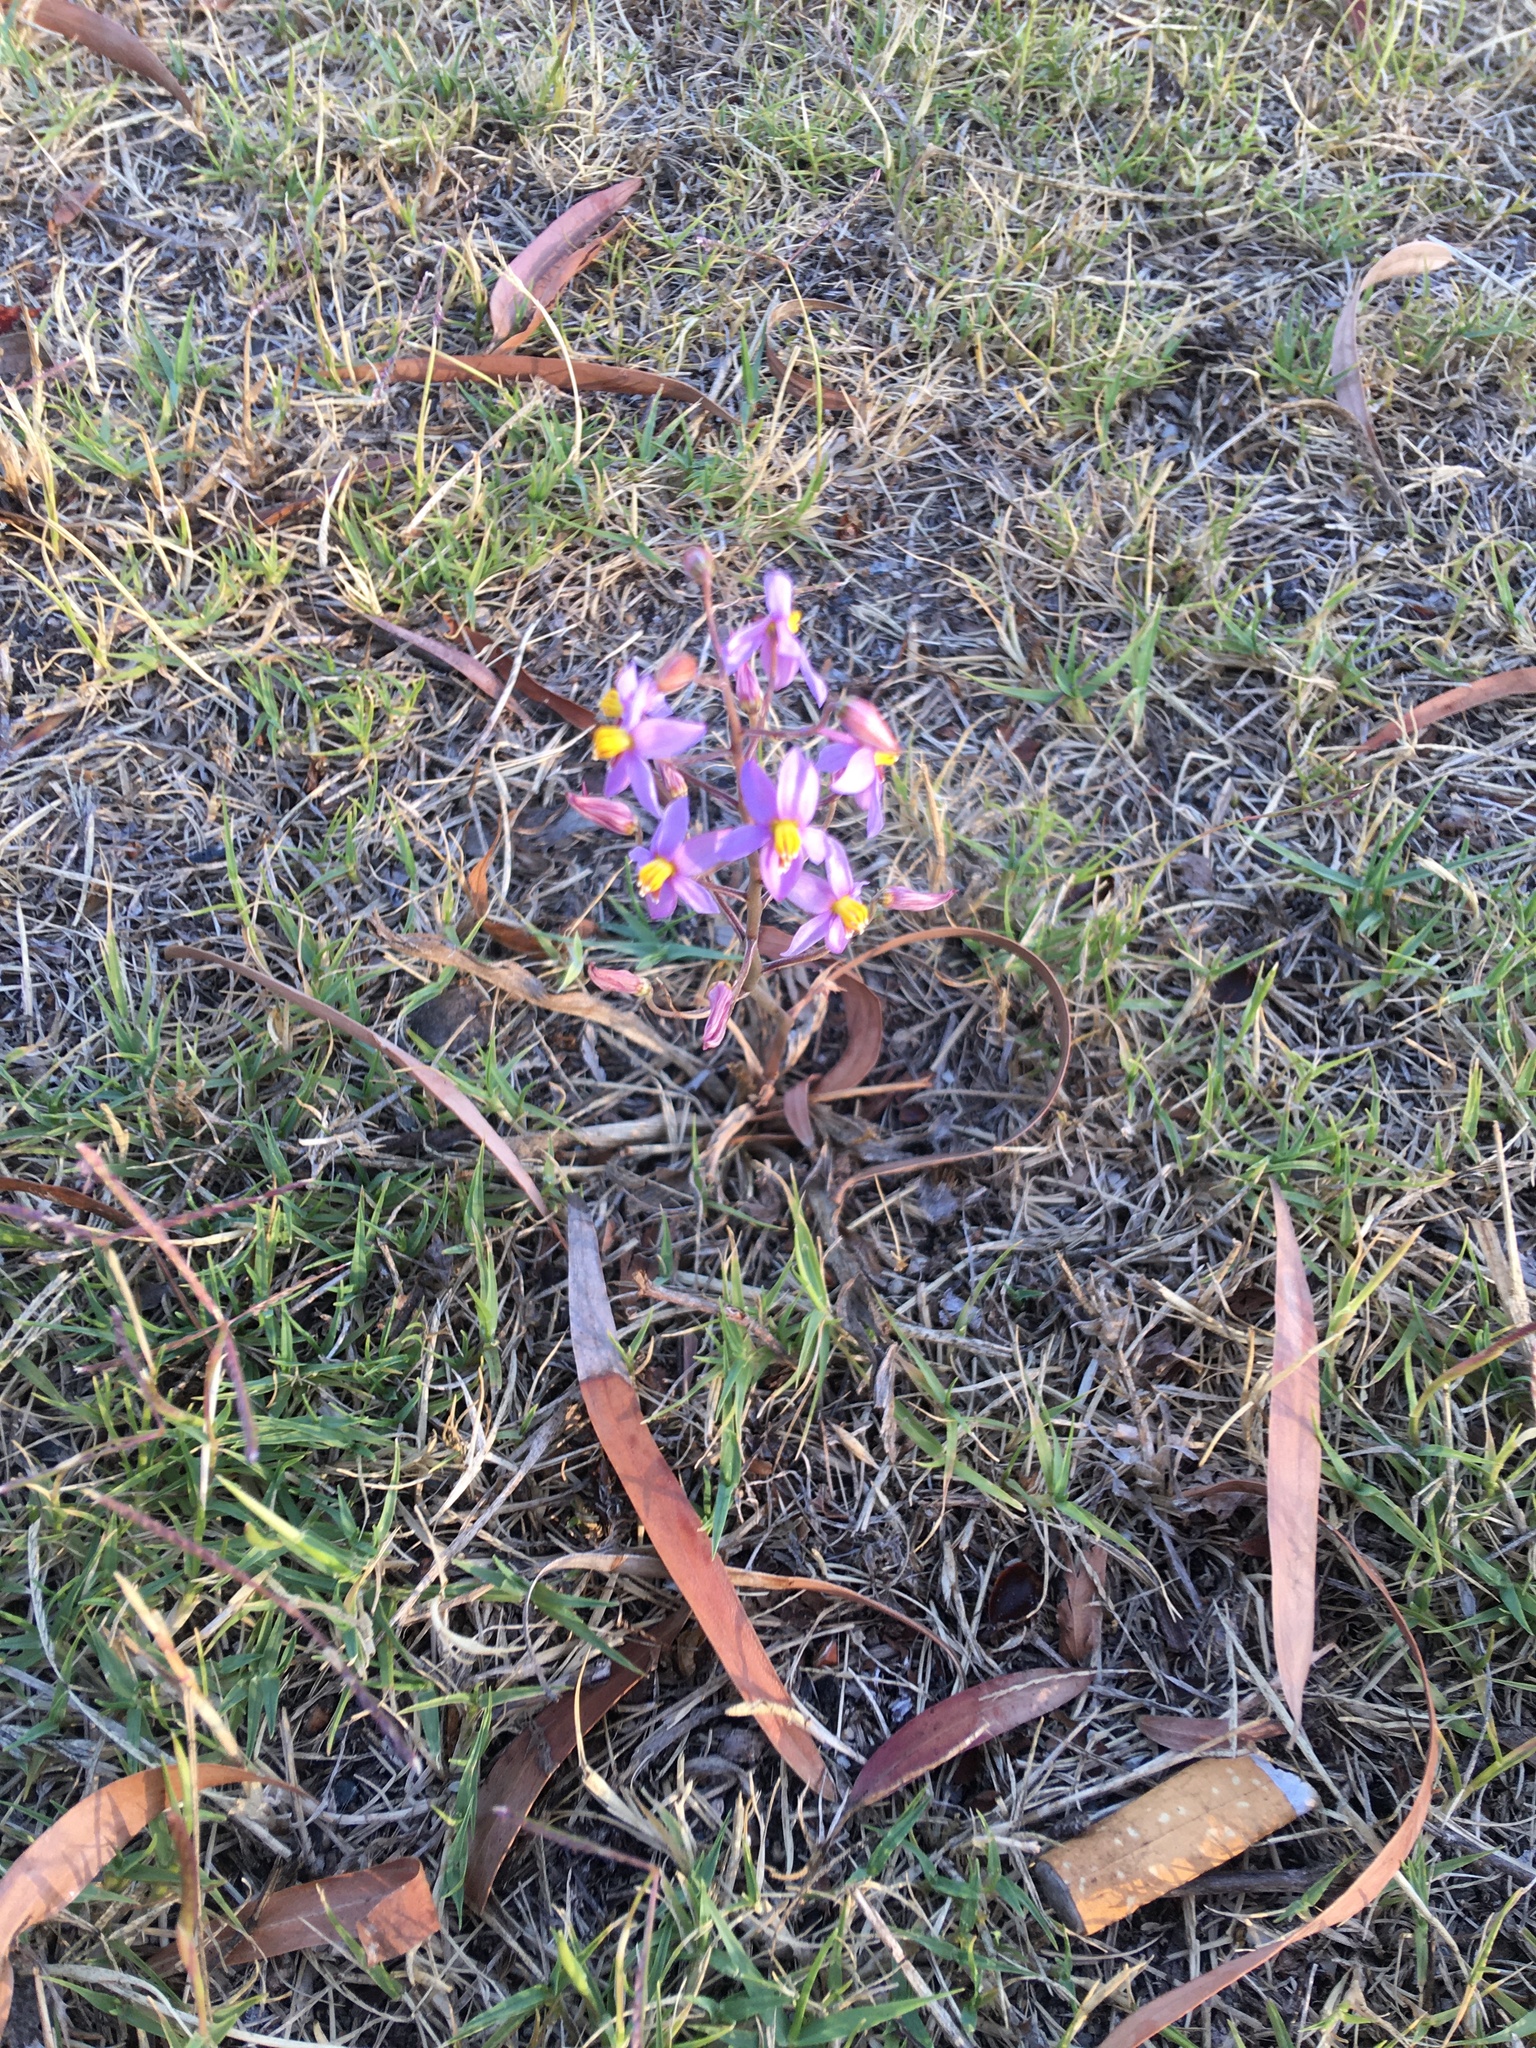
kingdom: Plantae
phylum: Tracheophyta
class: Liliopsida
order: Asparagales
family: Tecophilaeaceae
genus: Cyanella
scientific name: Cyanella hyacinthoides
